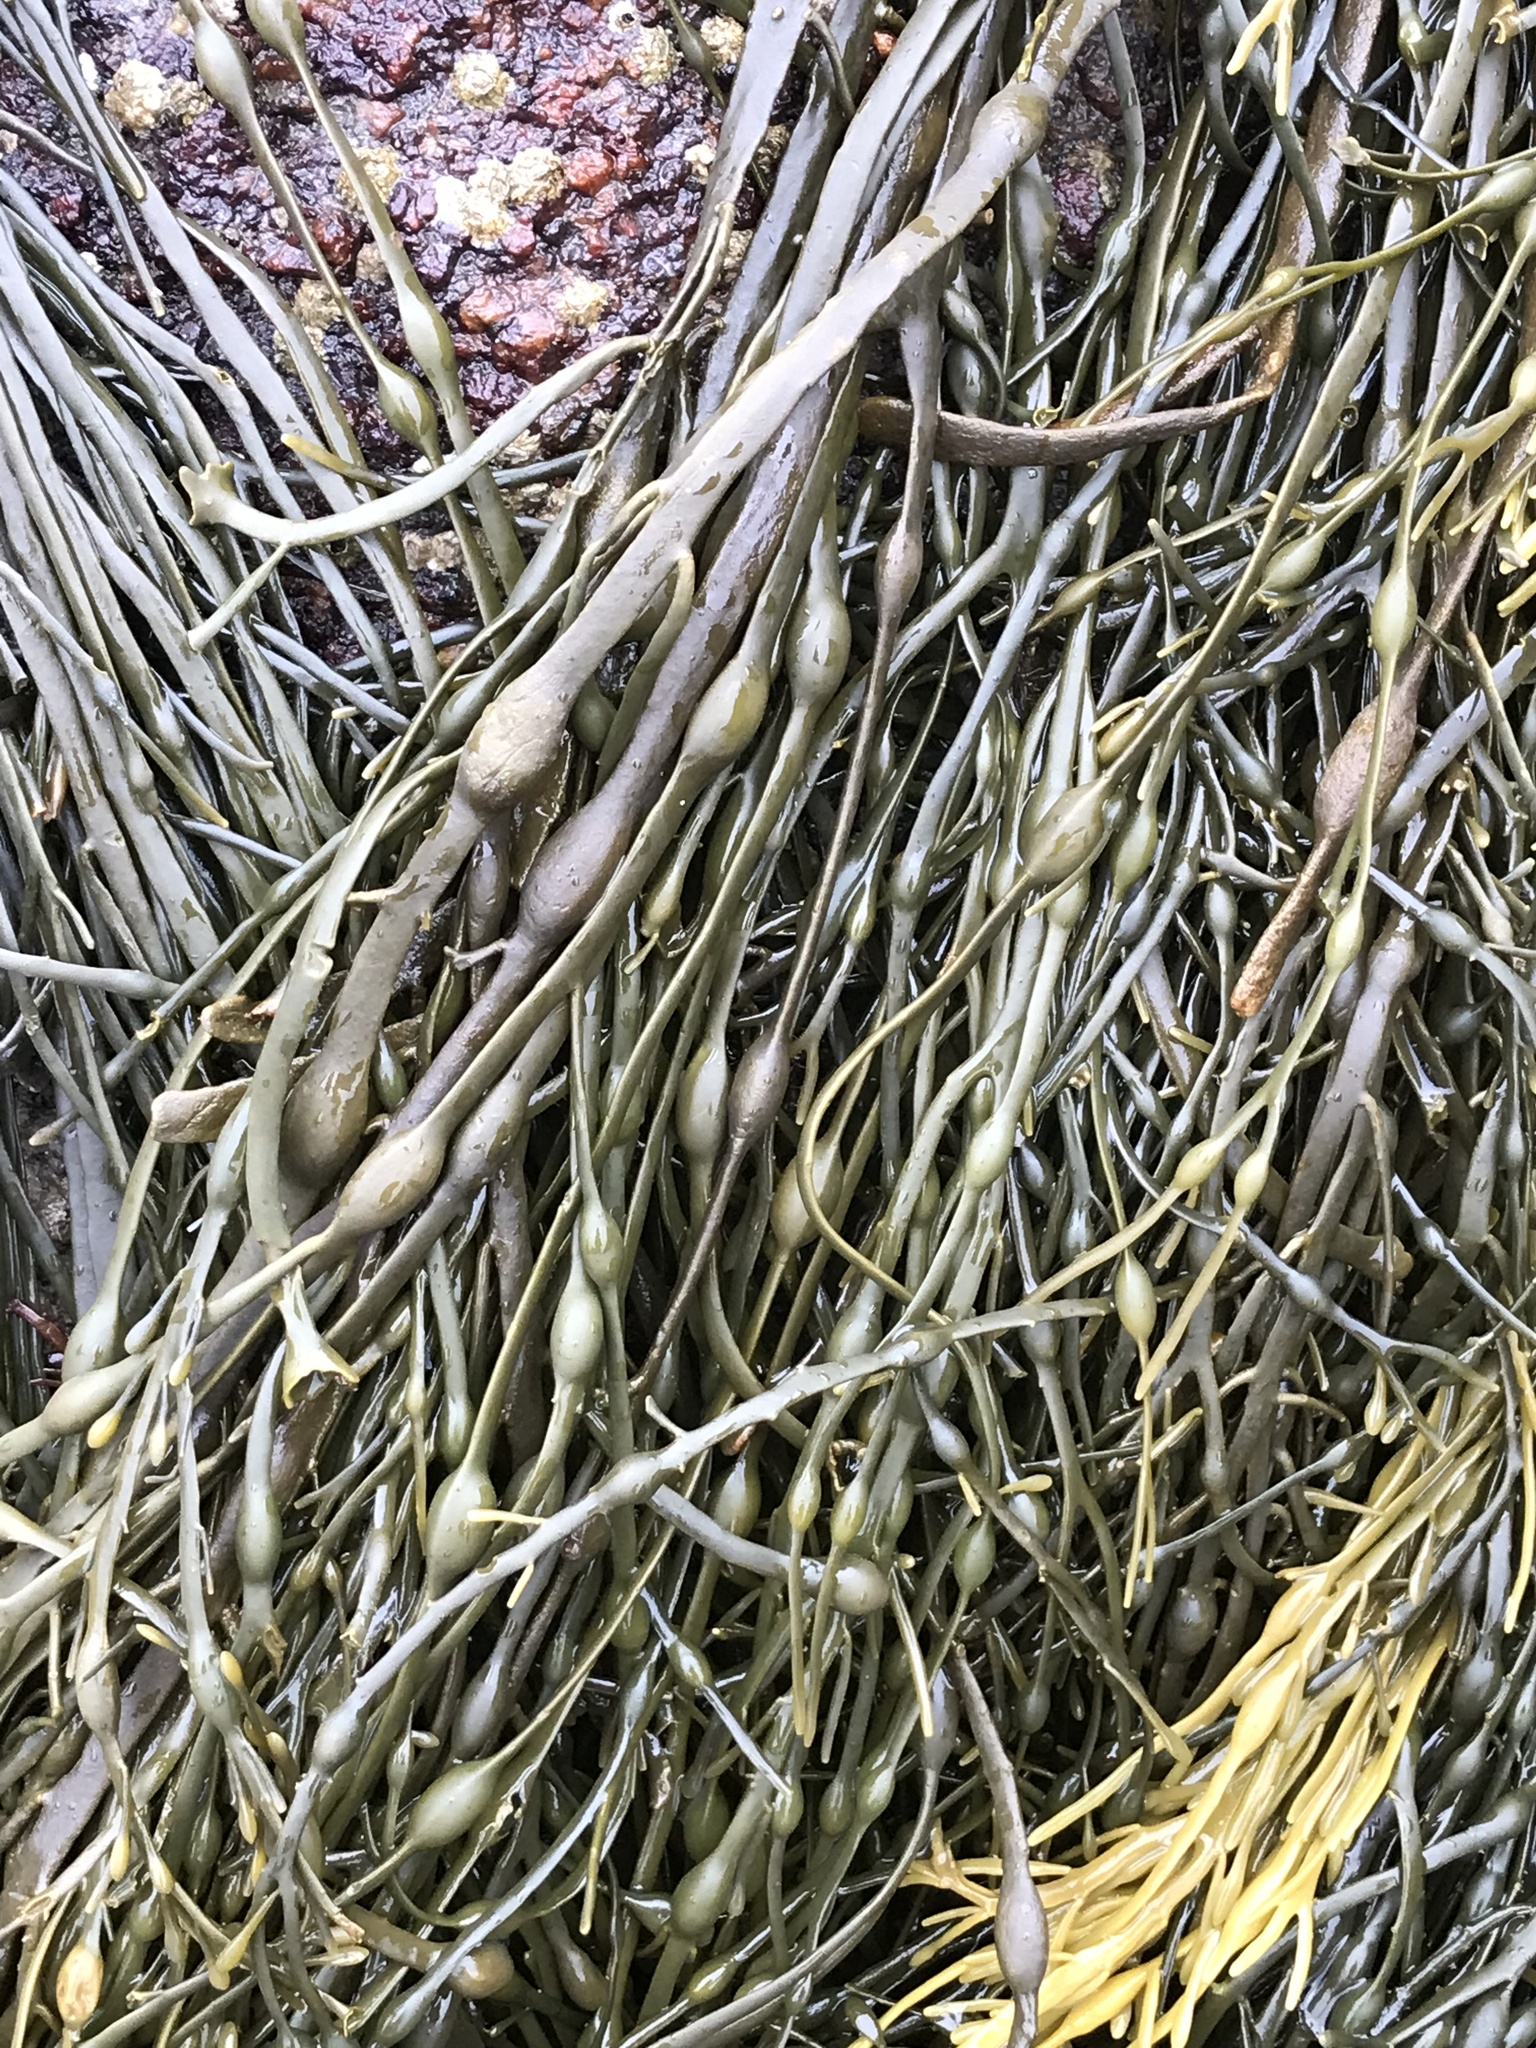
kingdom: Chromista
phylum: Ochrophyta
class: Phaeophyceae
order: Fucales
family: Fucaceae
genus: Ascophyllum
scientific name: Ascophyllum nodosum
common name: Knotted wrack
